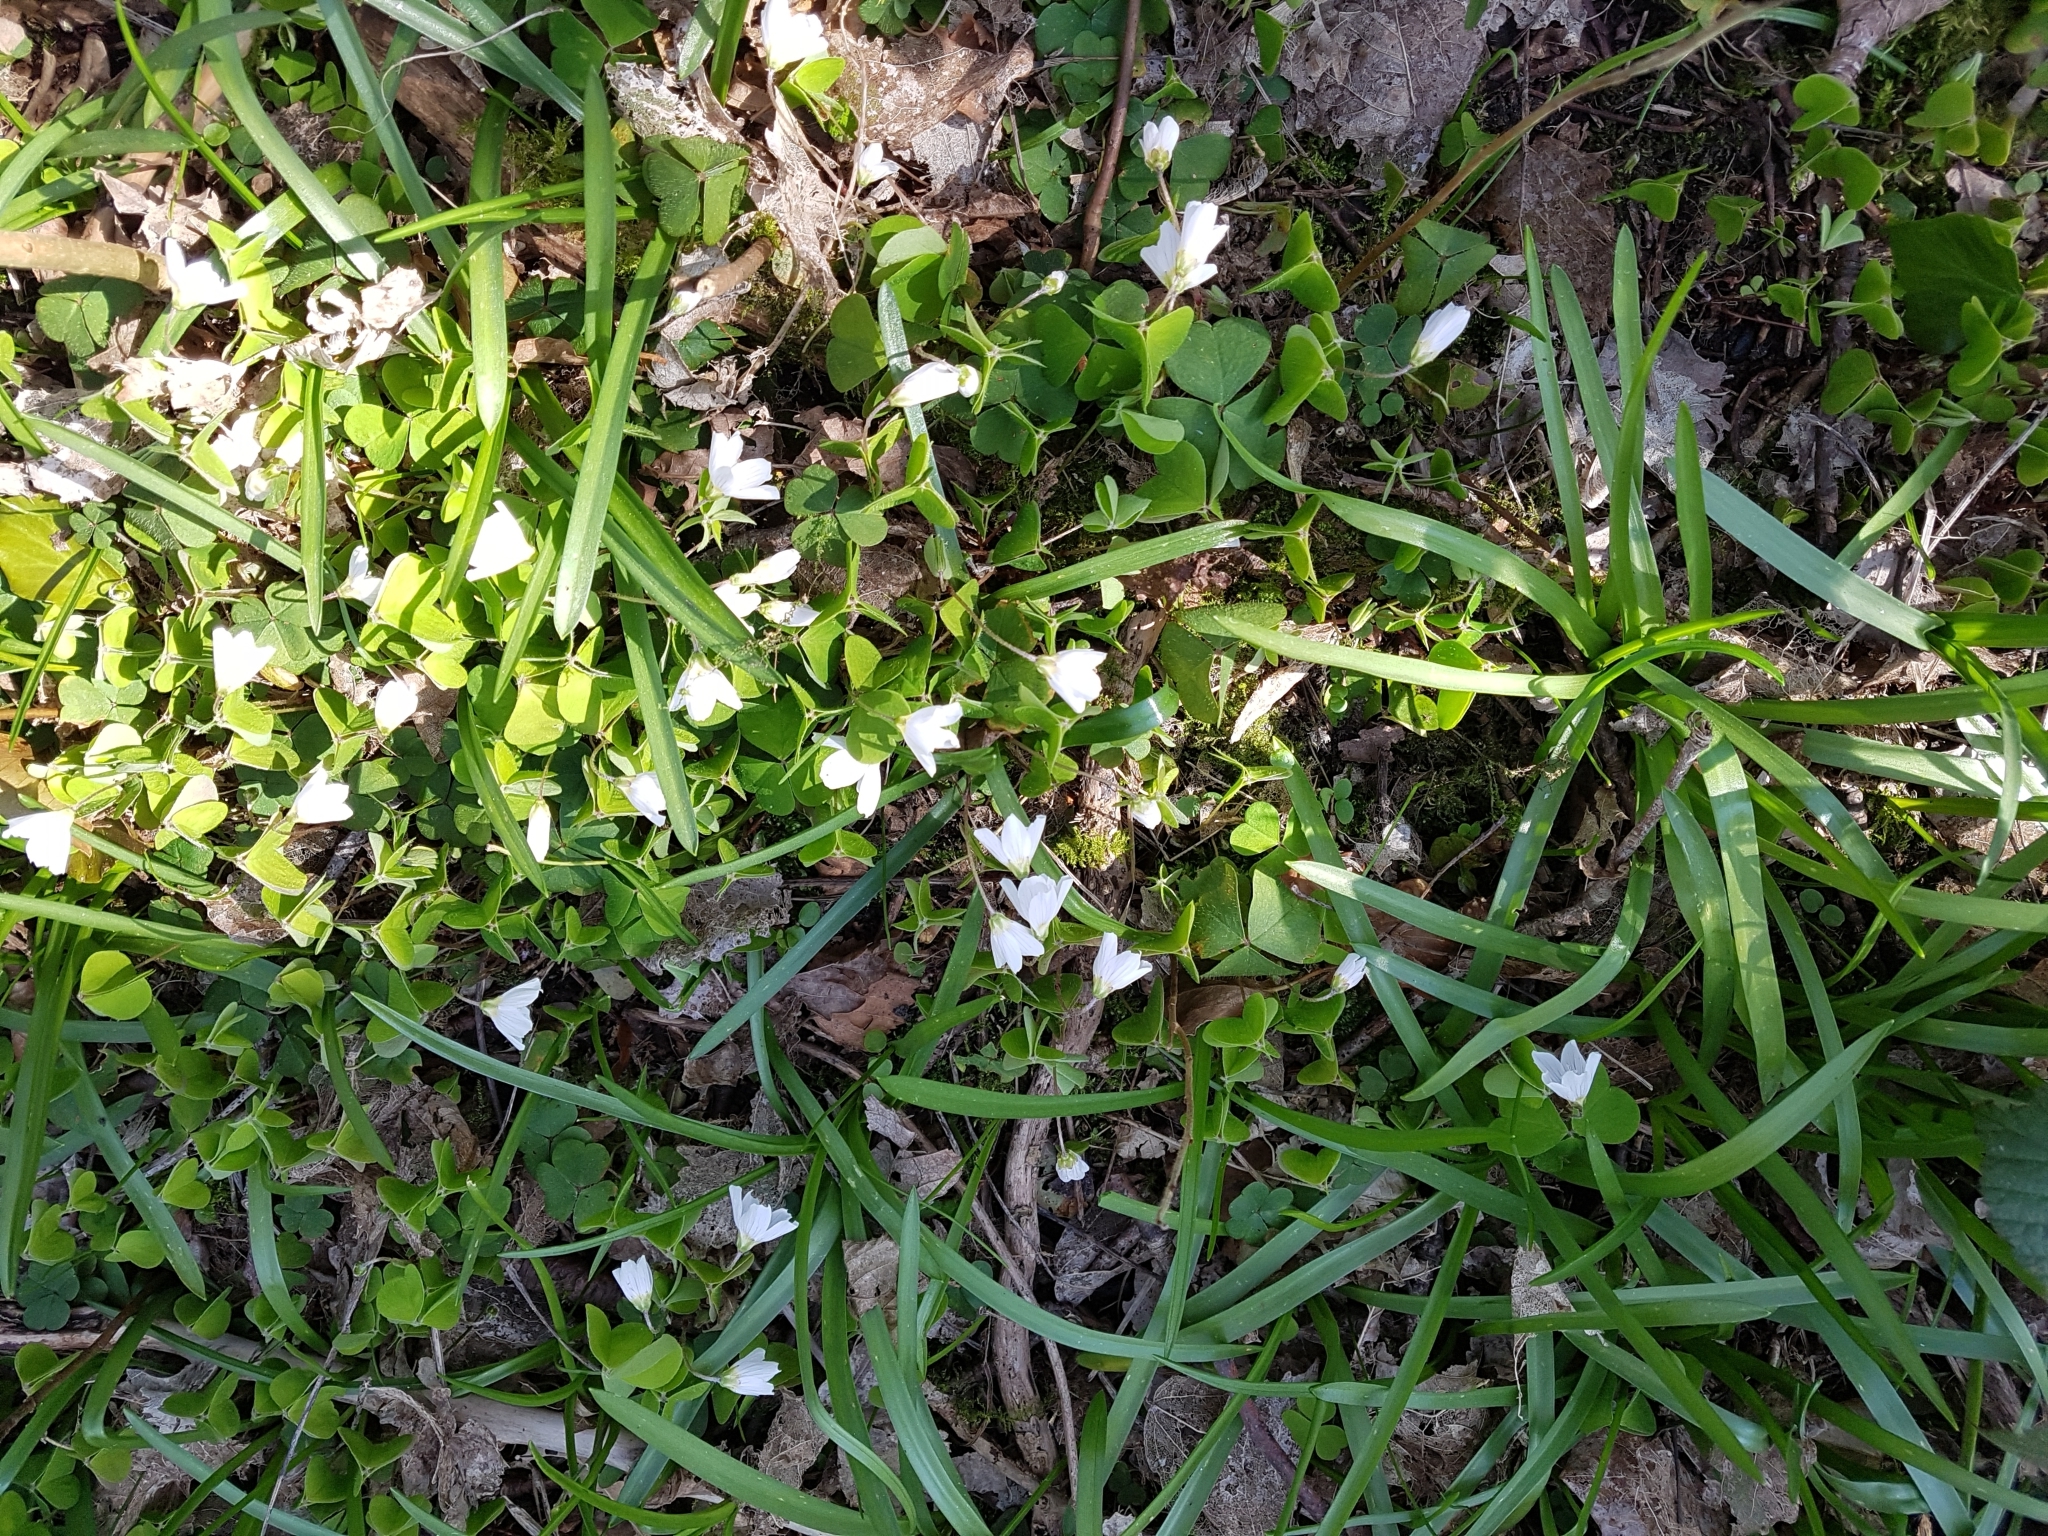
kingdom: Plantae
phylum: Tracheophyta
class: Magnoliopsida
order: Oxalidales
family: Oxalidaceae
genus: Oxalis
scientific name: Oxalis acetosella
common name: Wood-sorrel
